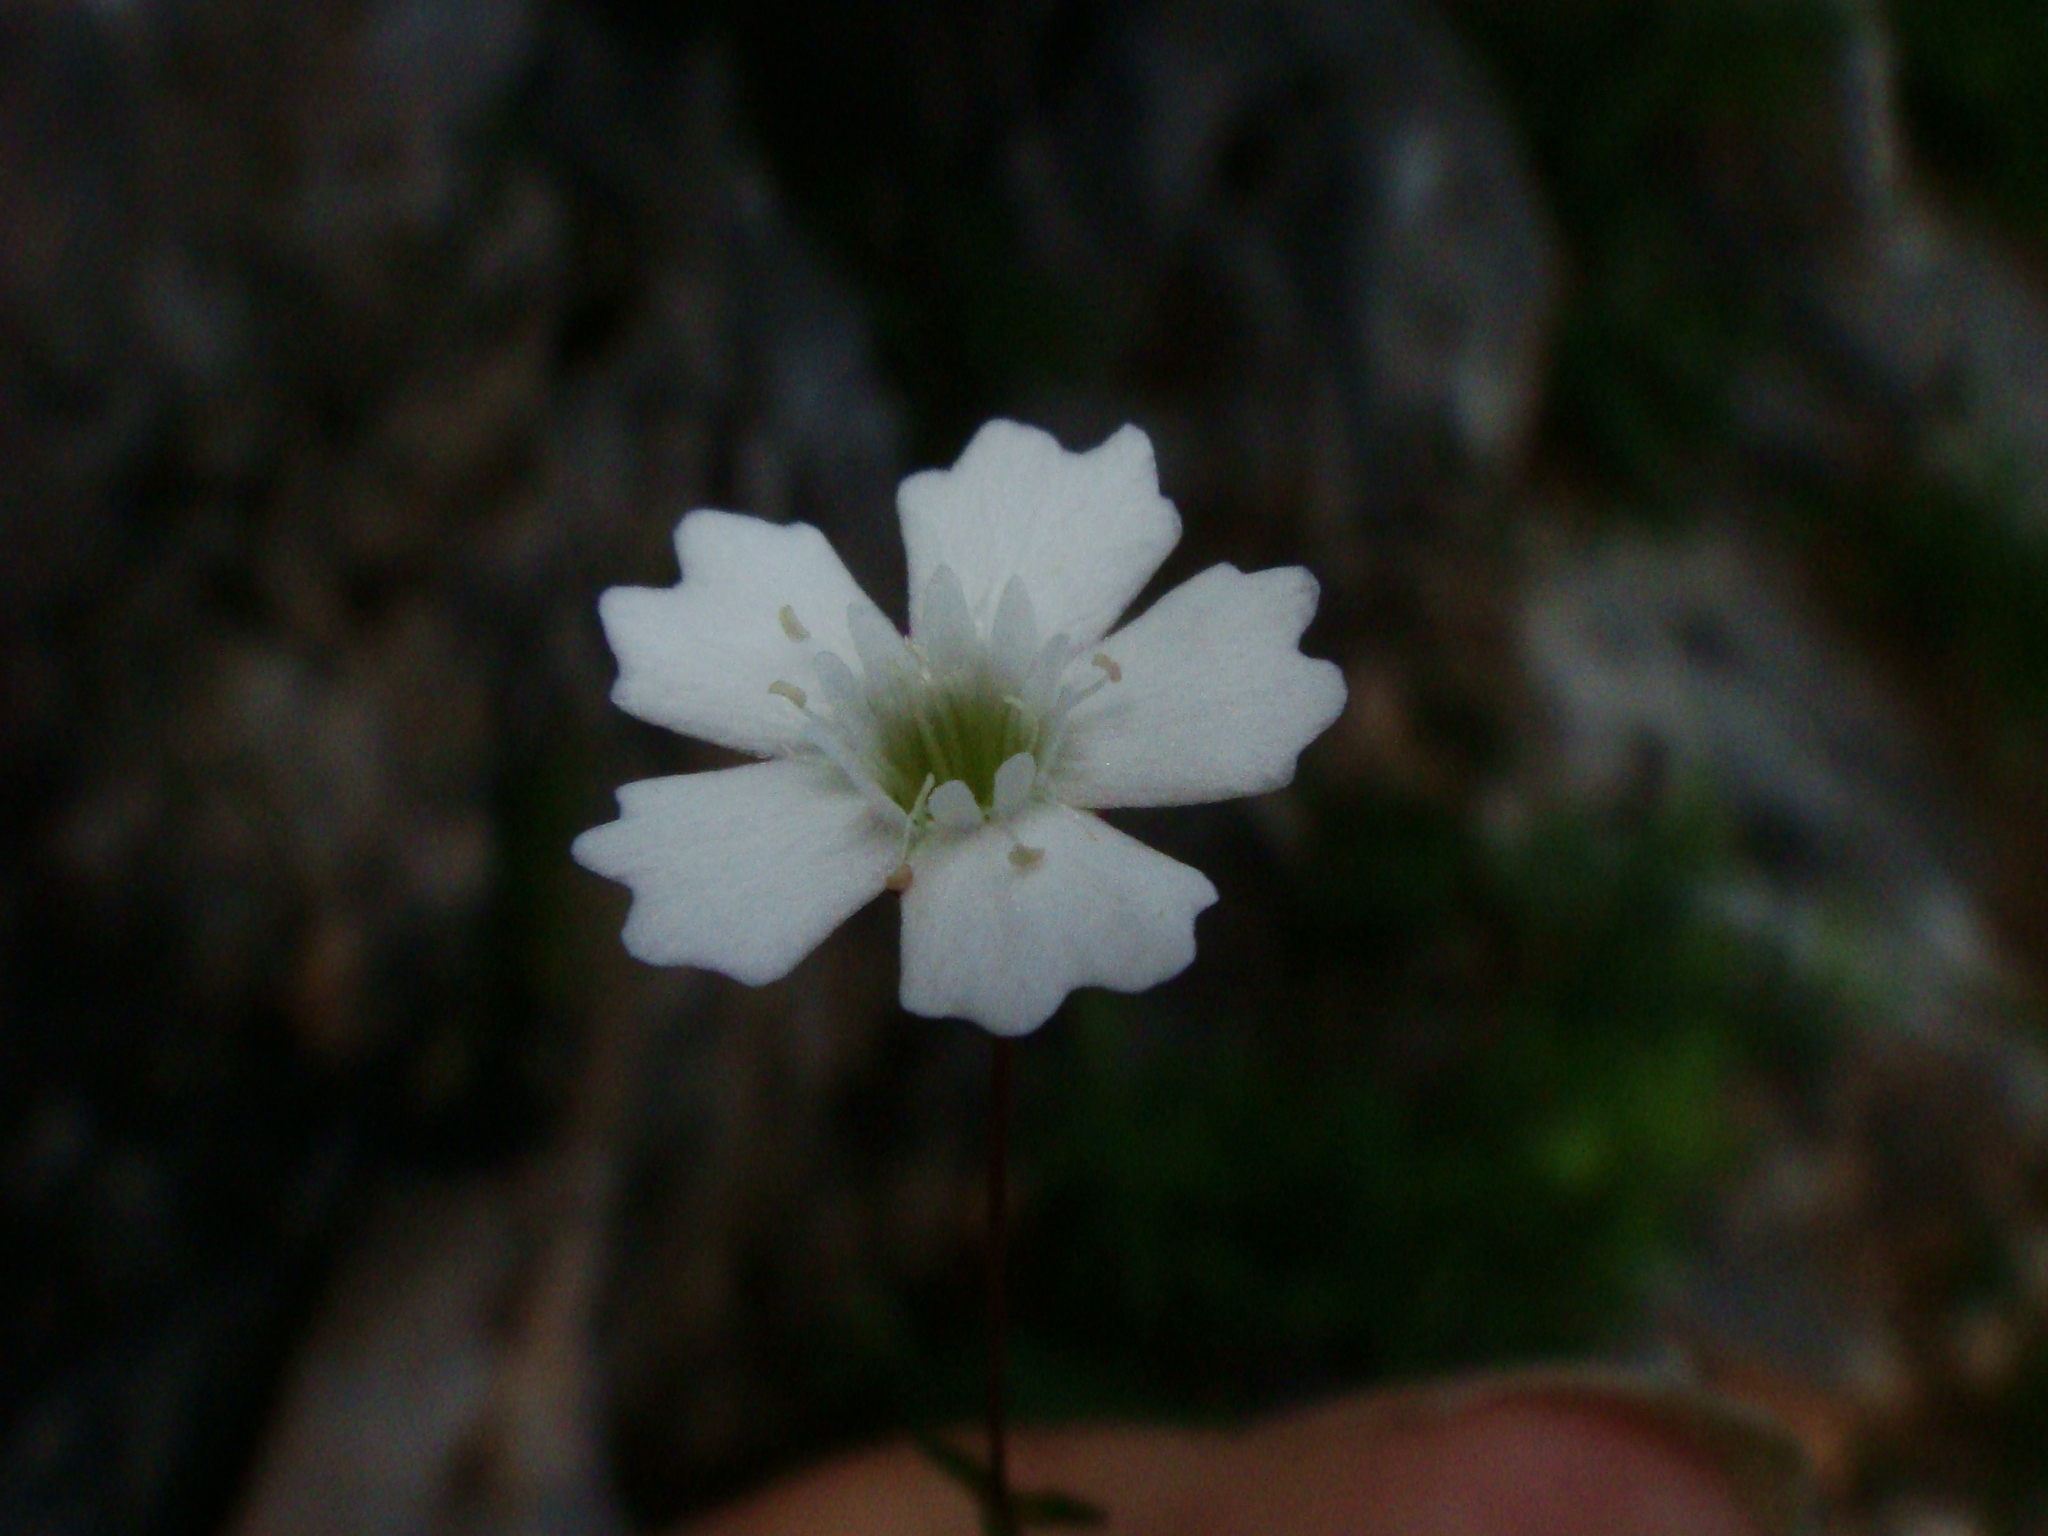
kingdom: Plantae
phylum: Tracheophyta
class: Magnoliopsida
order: Caryophyllales
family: Caryophyllaceae
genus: Heliosperma
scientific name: Heliosperma pusillum
